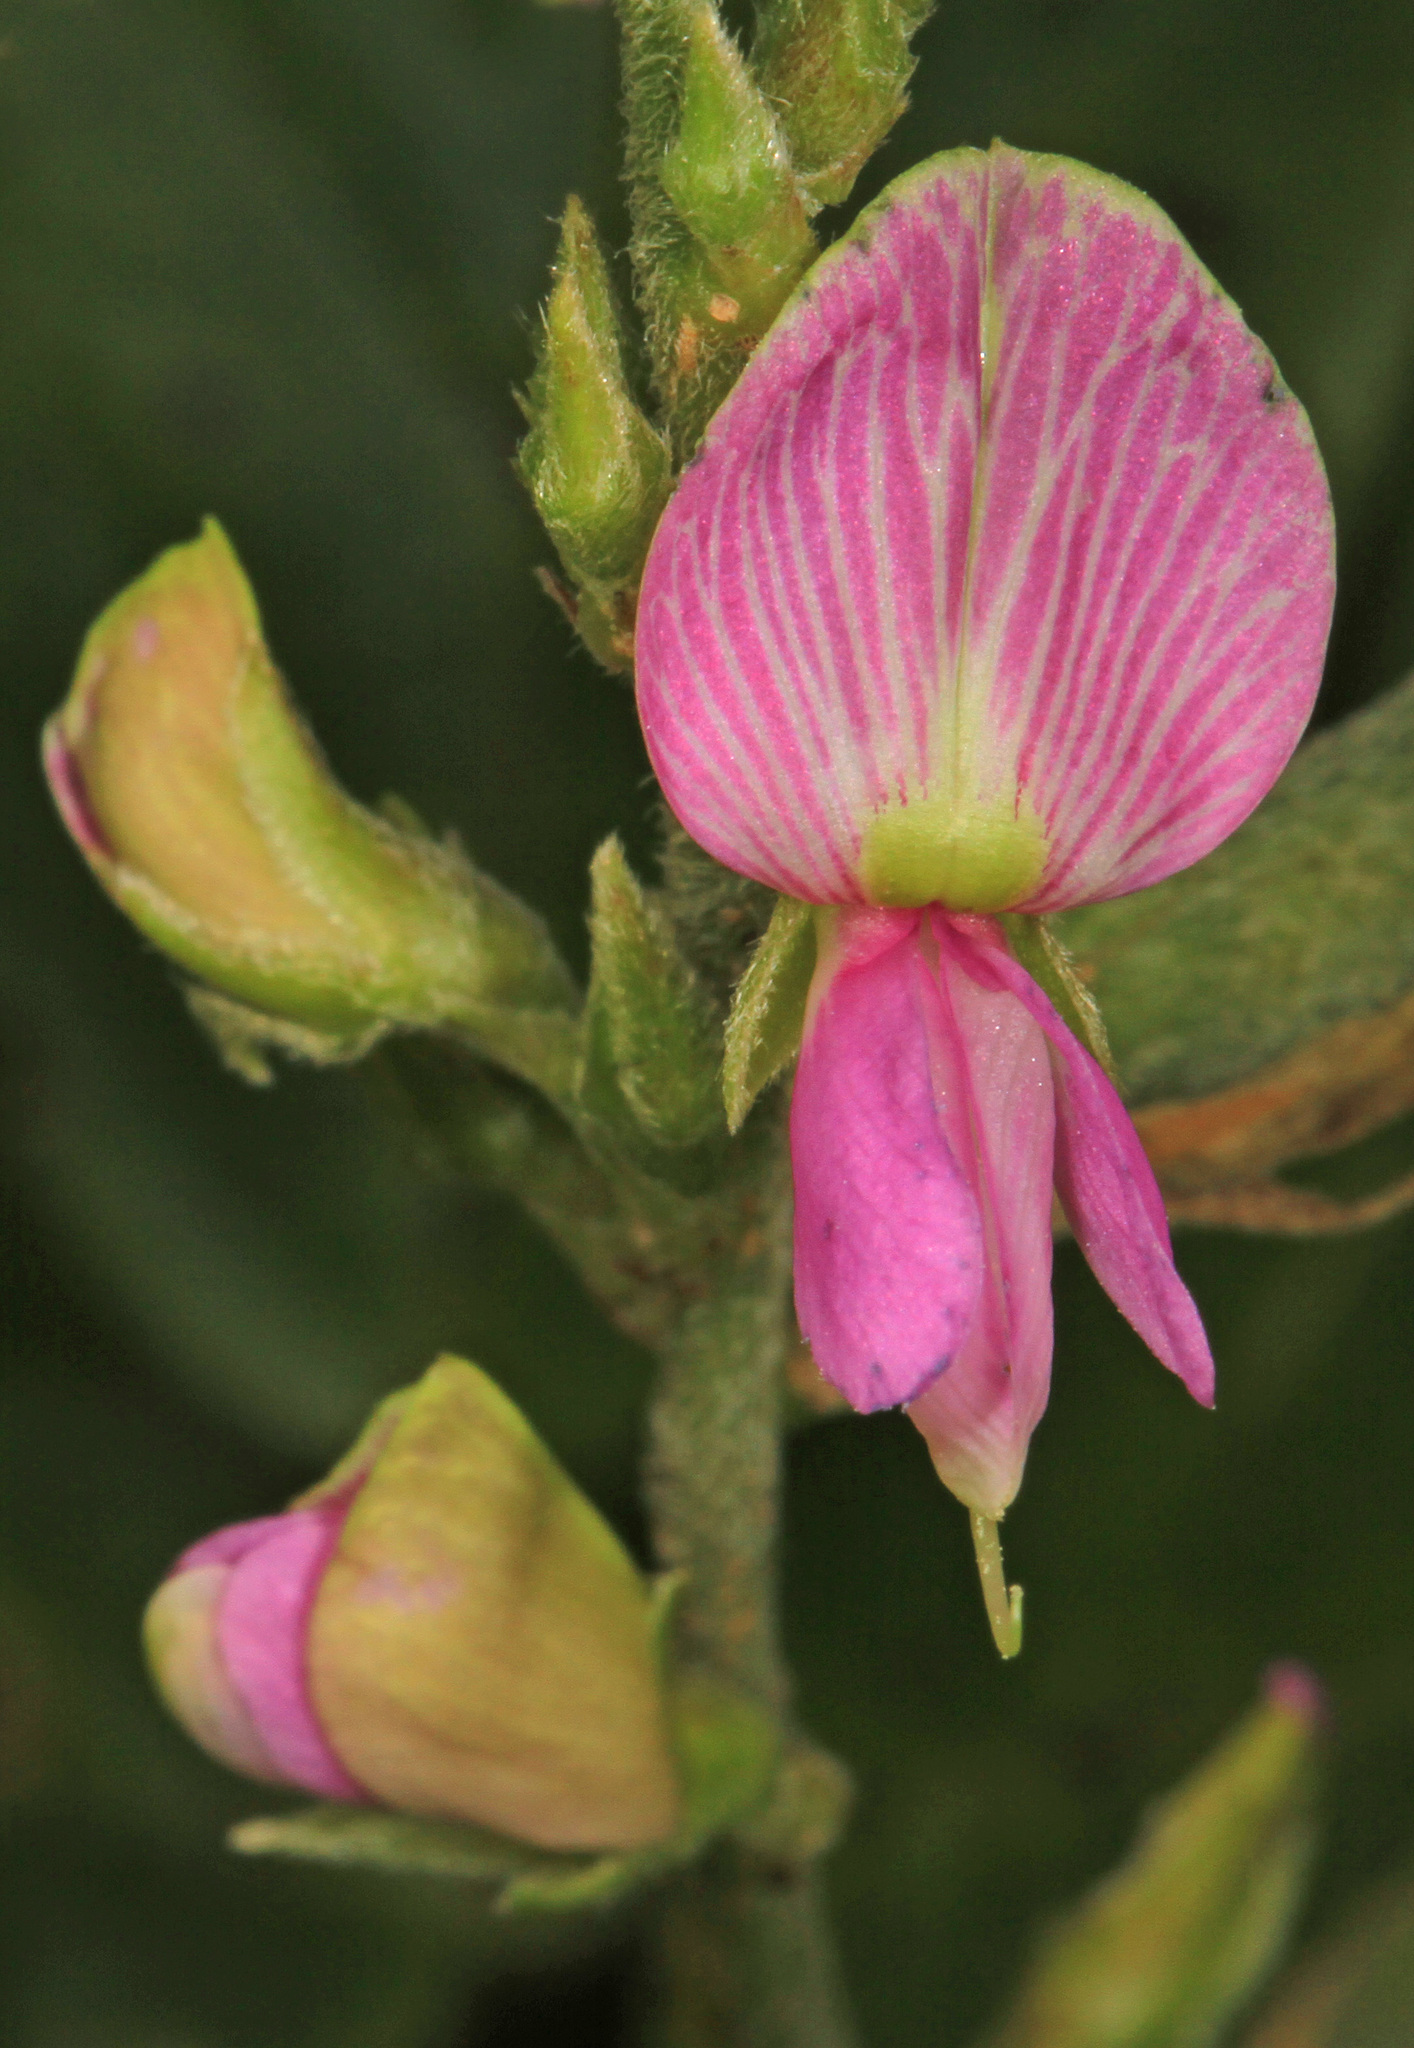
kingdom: Plantae
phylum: Tracheophyta
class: Magnoliopsida
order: Fabales
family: Fabaceae
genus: Galactia
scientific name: Galactia striata
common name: Florida hammock milkpea
